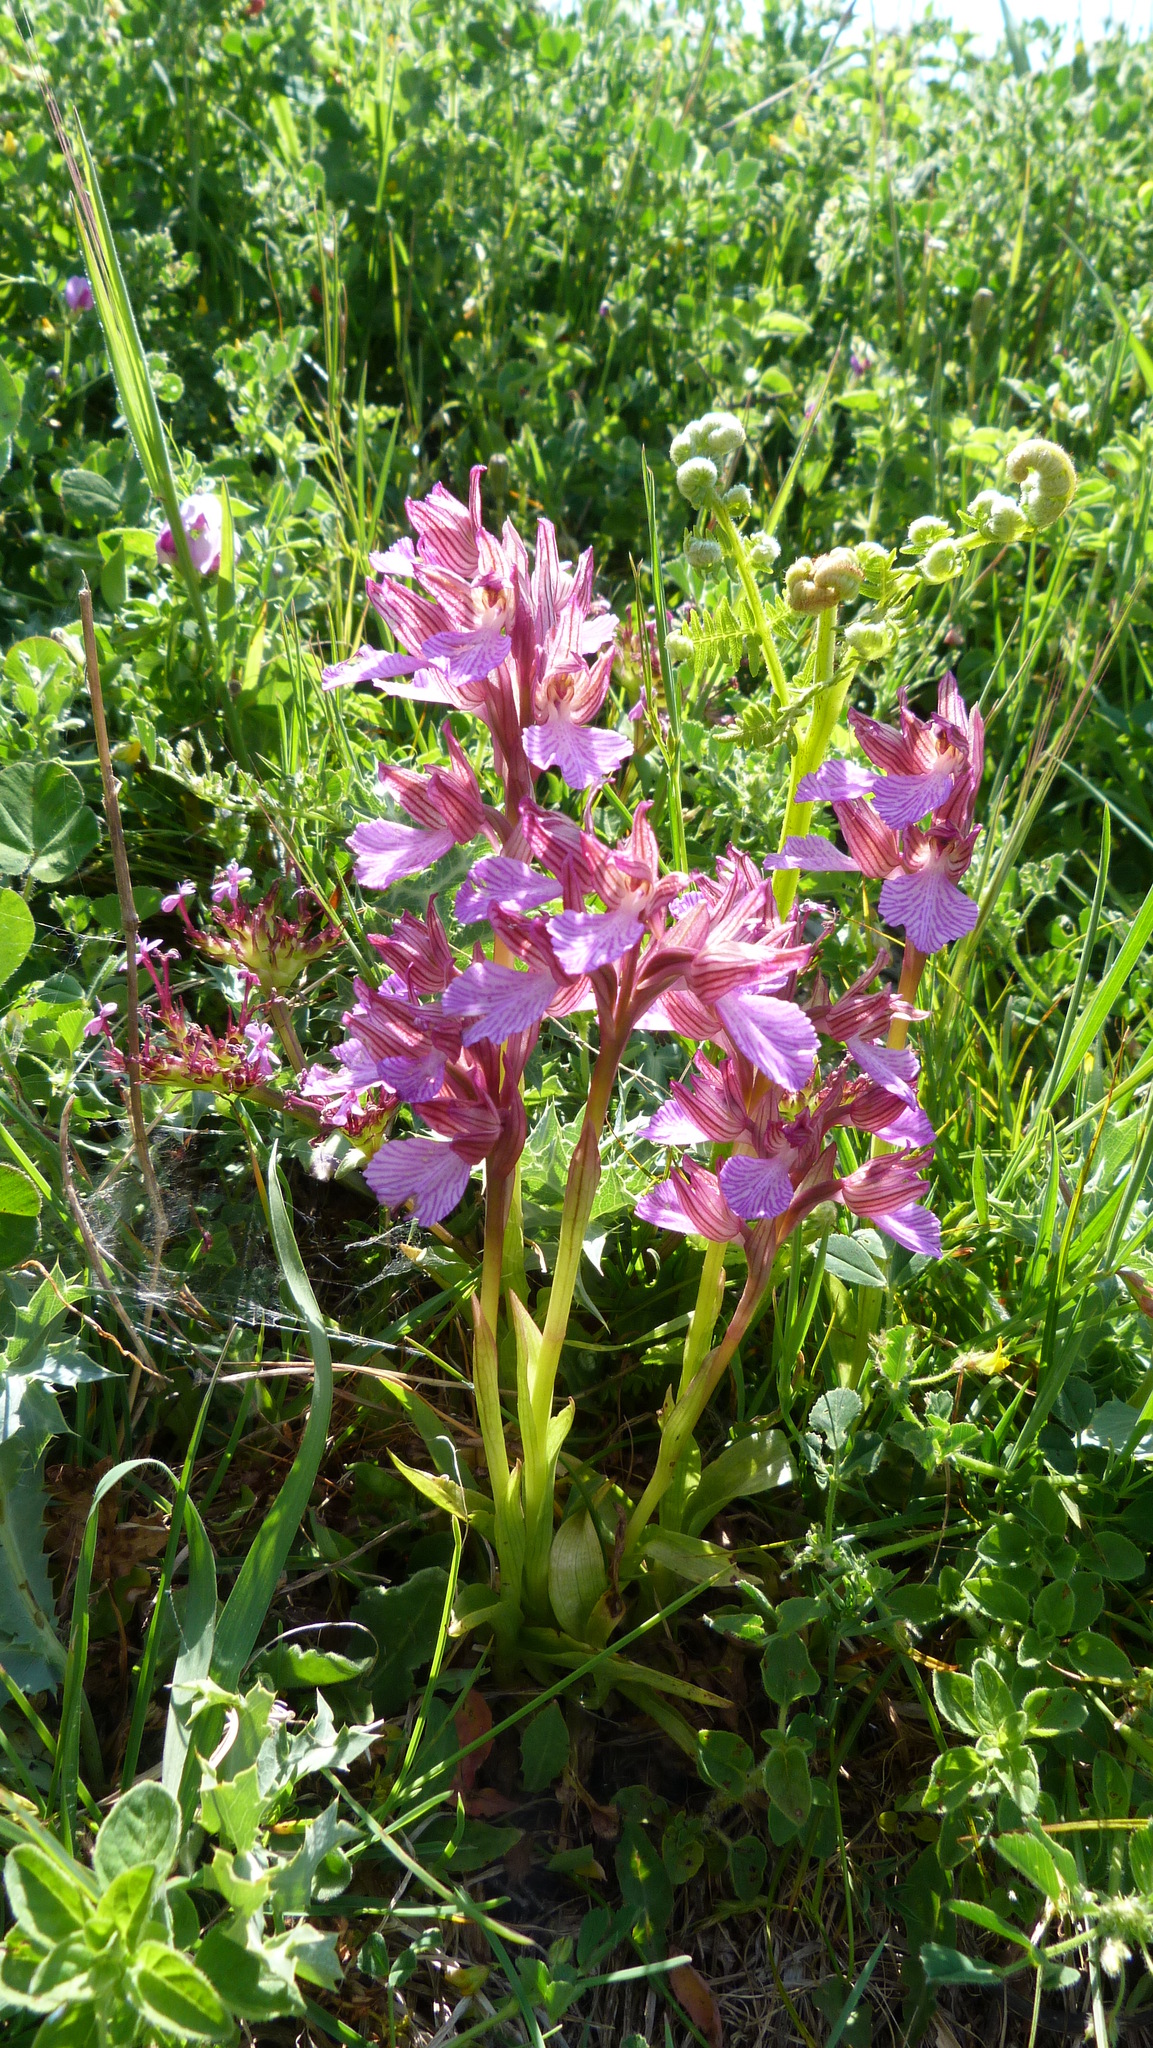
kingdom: Plantae
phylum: Tracheophyta
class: Liliopsida
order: Asparagales
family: Orchidaceae
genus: Anacamptis
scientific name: Anacamptis papilionacea
